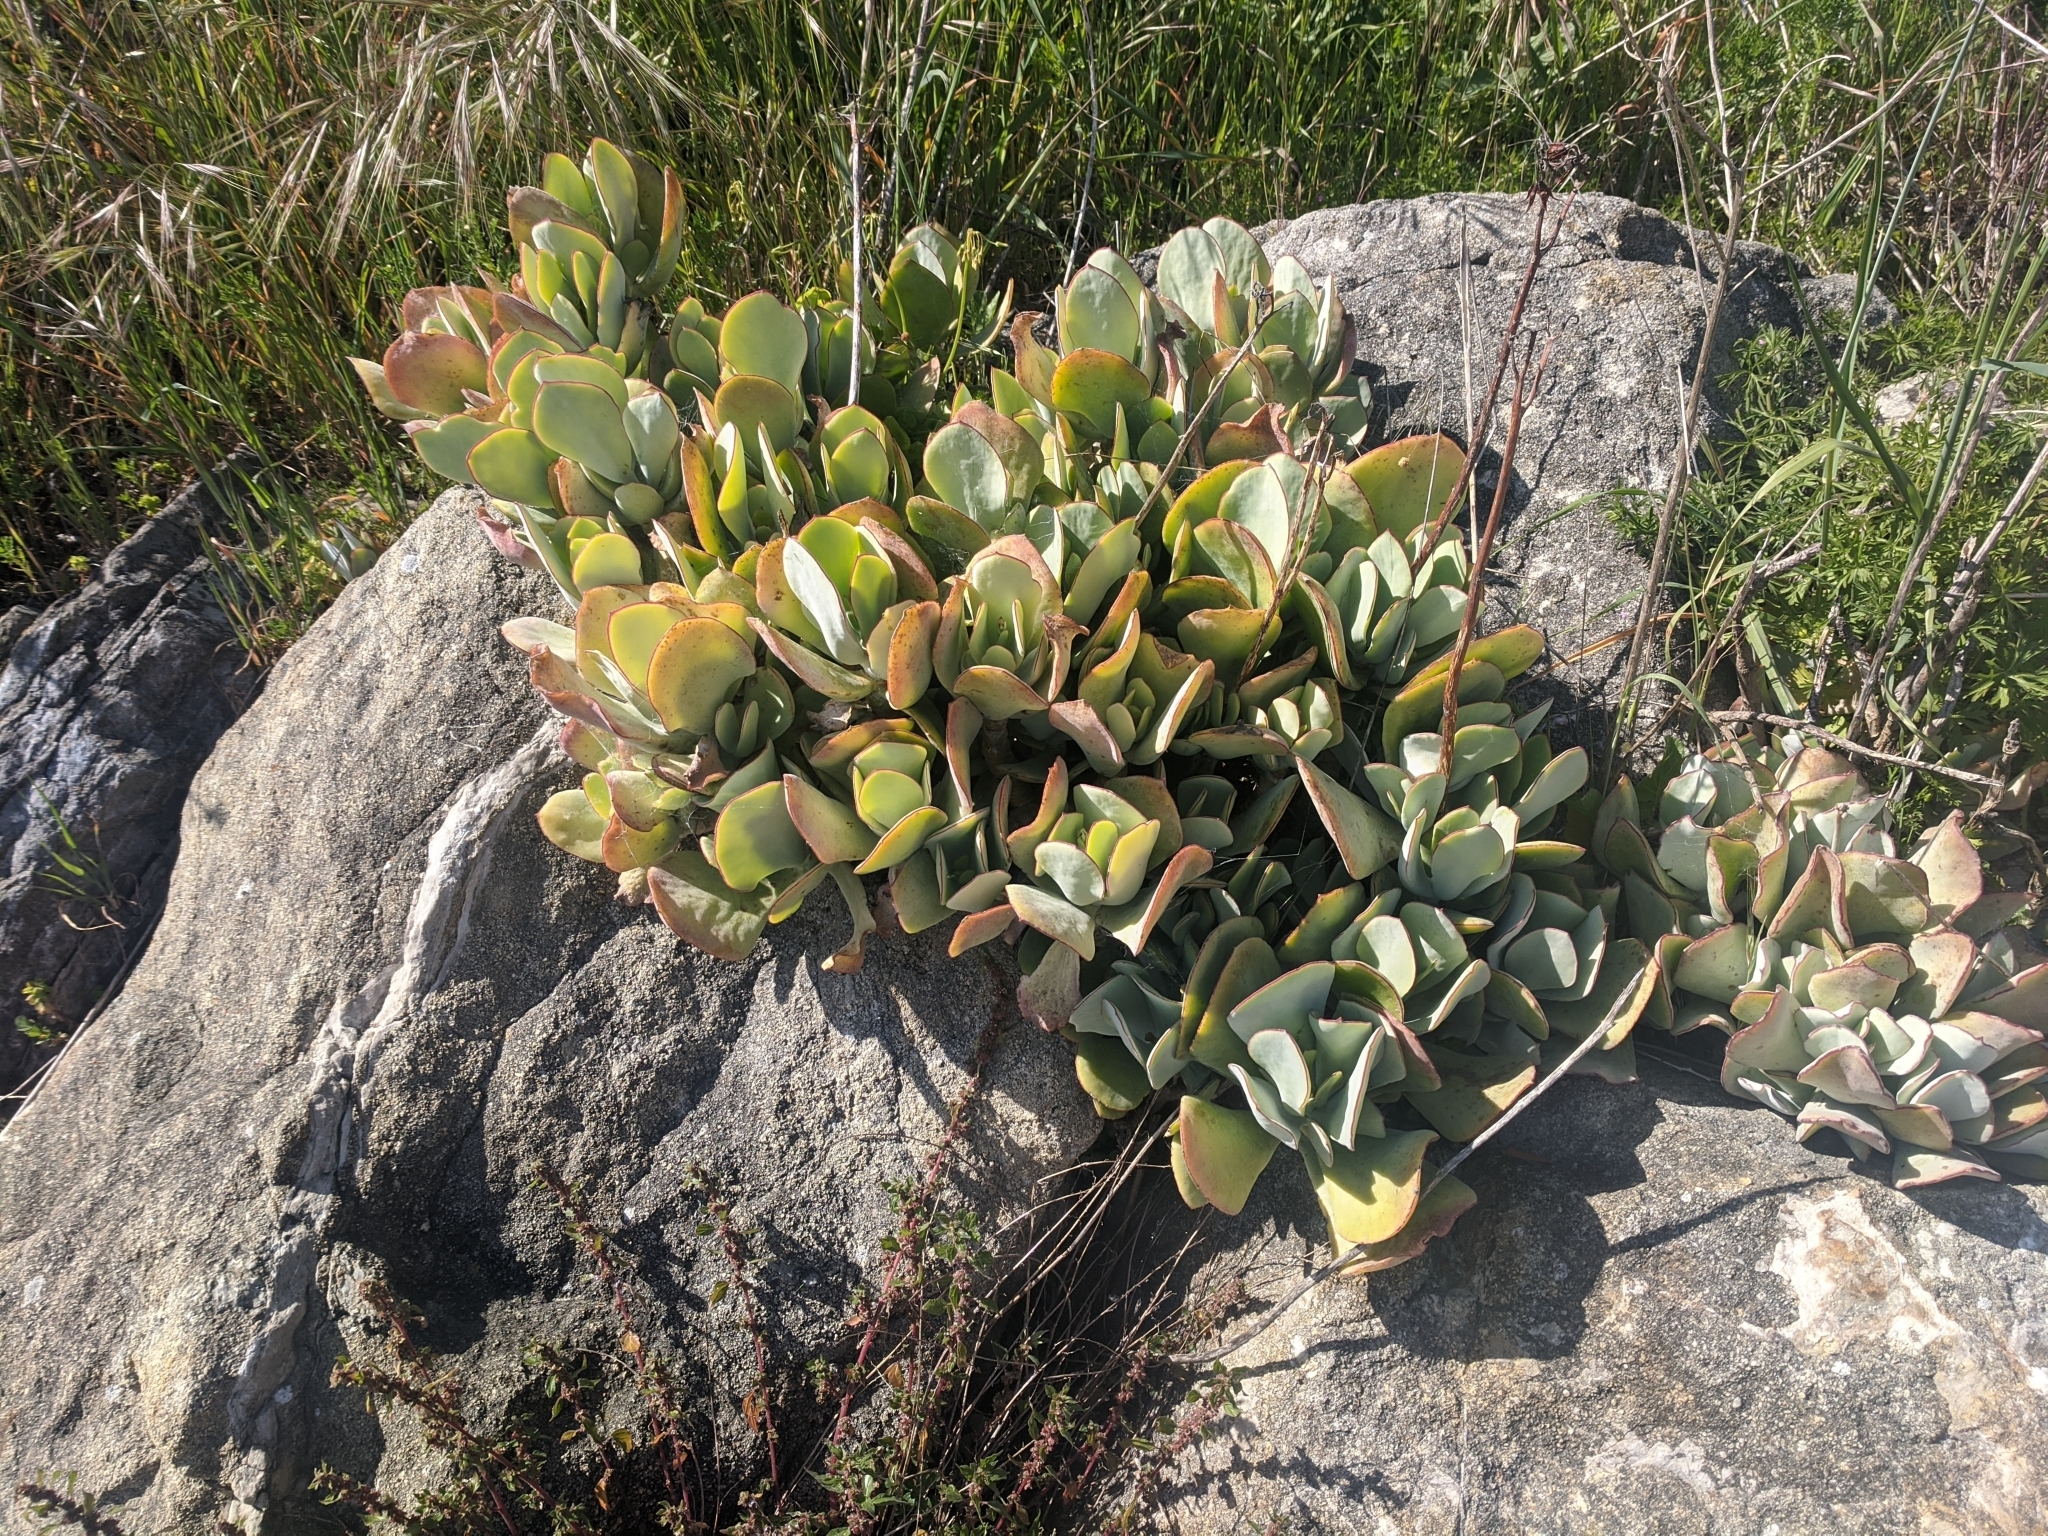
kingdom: Plantae
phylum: Tracheophyta
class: Magnoliopsida
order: Saxifragales
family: Crassulaceae
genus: Cotyledon
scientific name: Cotyledon orbiculata
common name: Pig's ear
